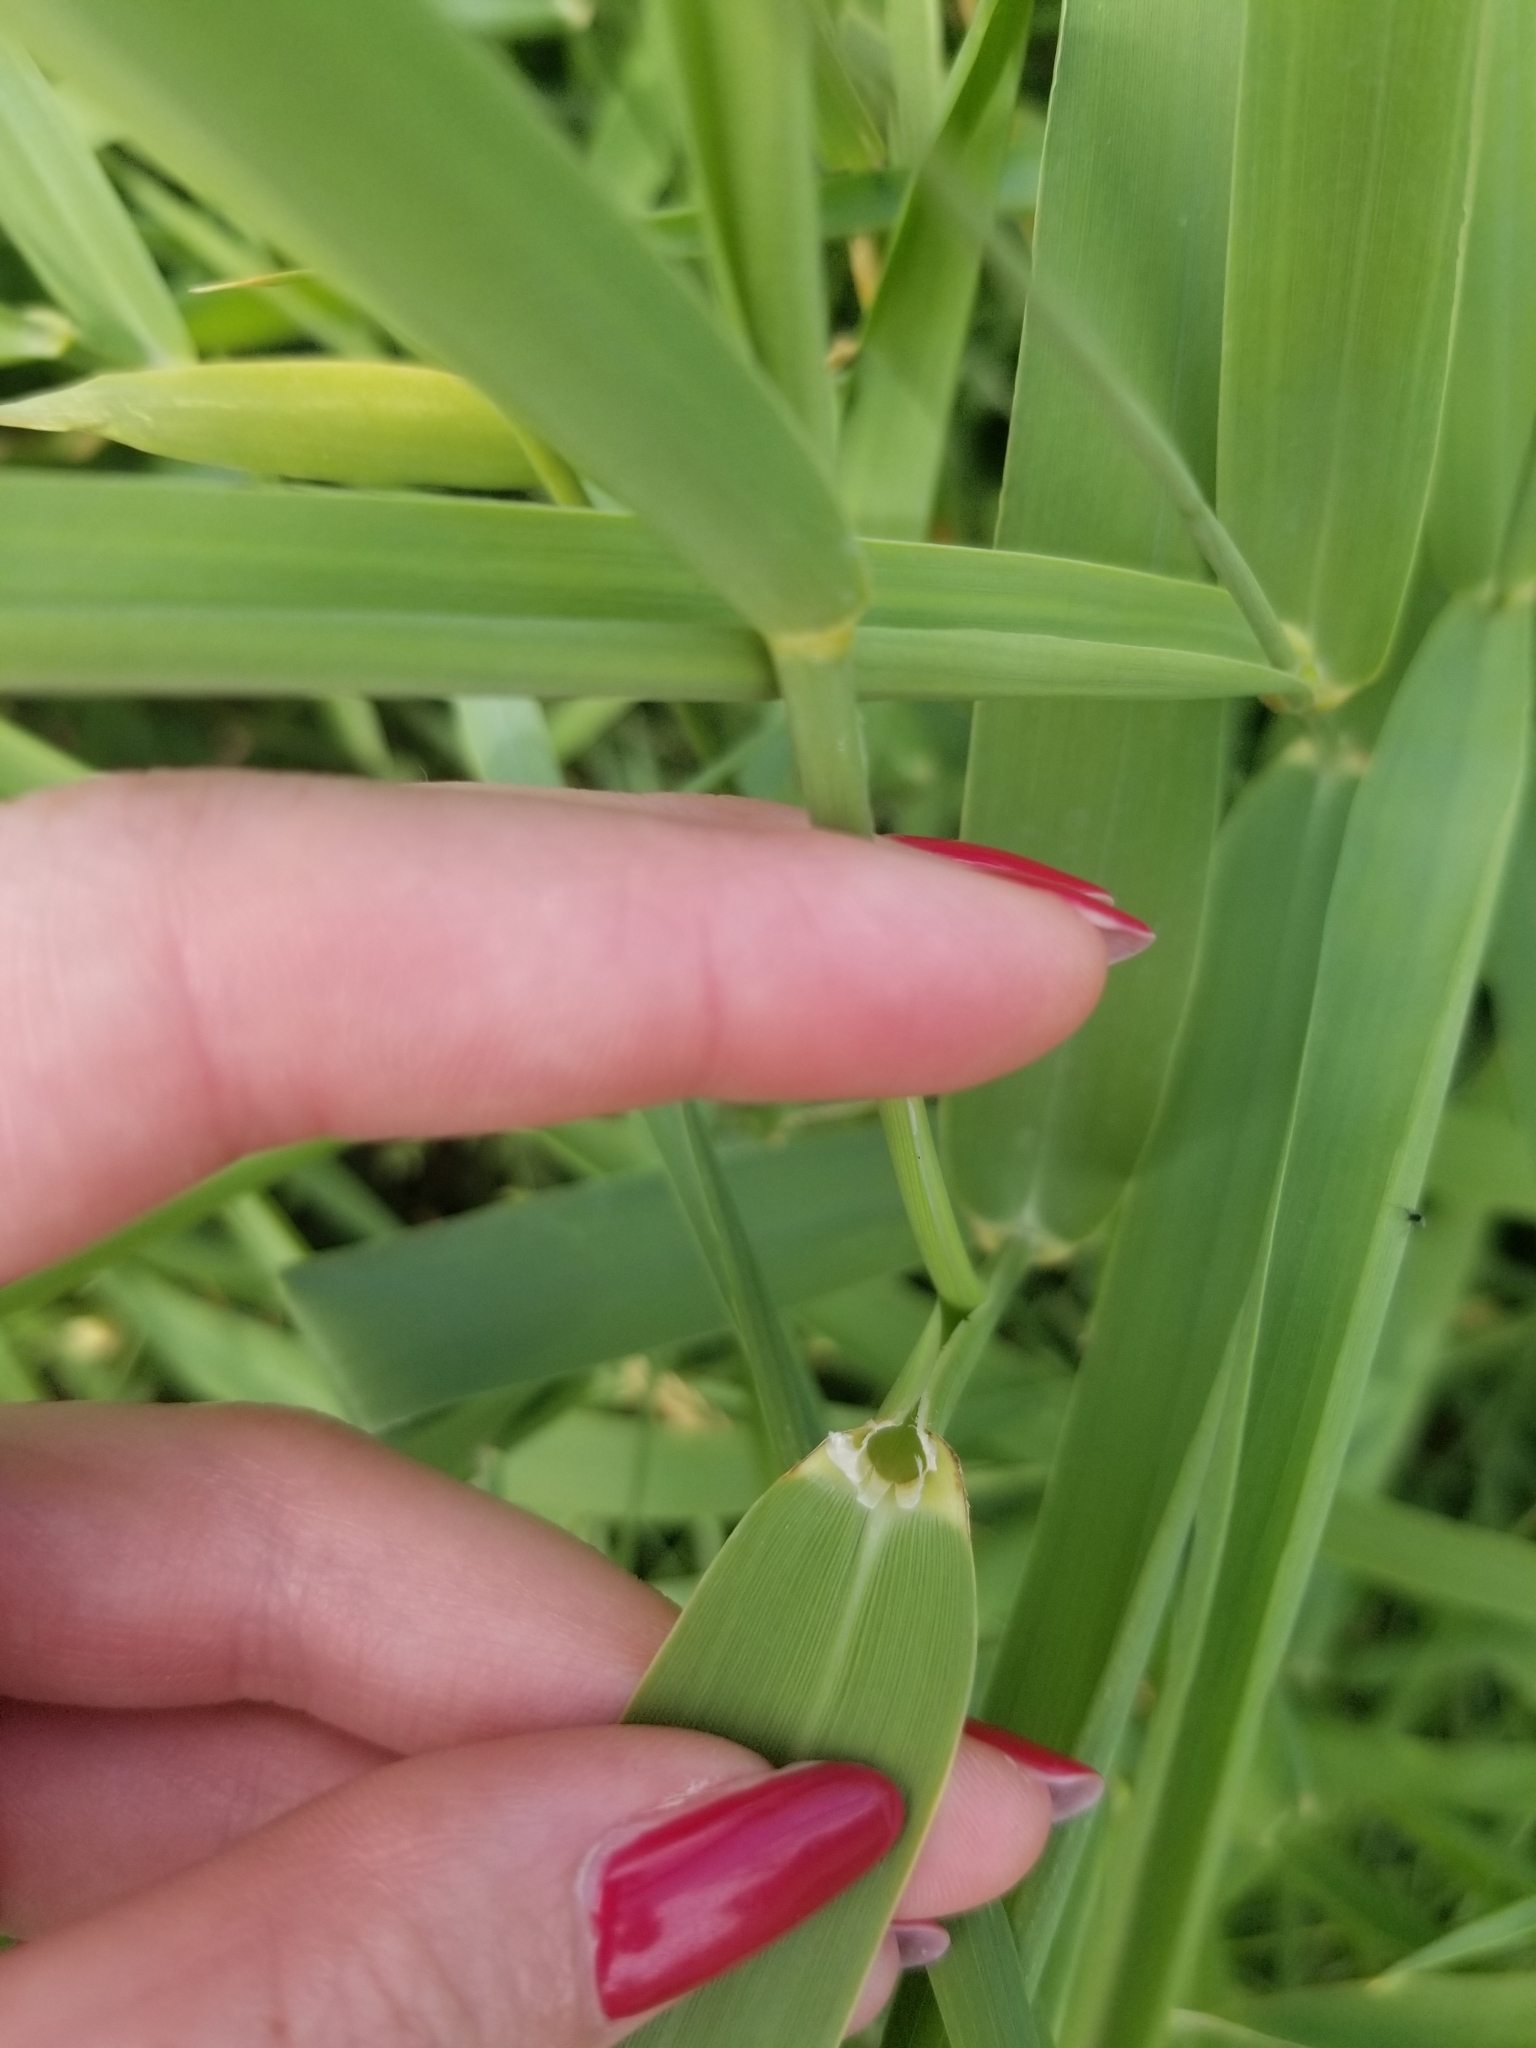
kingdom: Plantae
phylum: Tracheophyta
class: Liliopsida
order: Poales
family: Poaceae
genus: Phalaris
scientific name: Phalaris arundinacea
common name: Reed canary-grass
